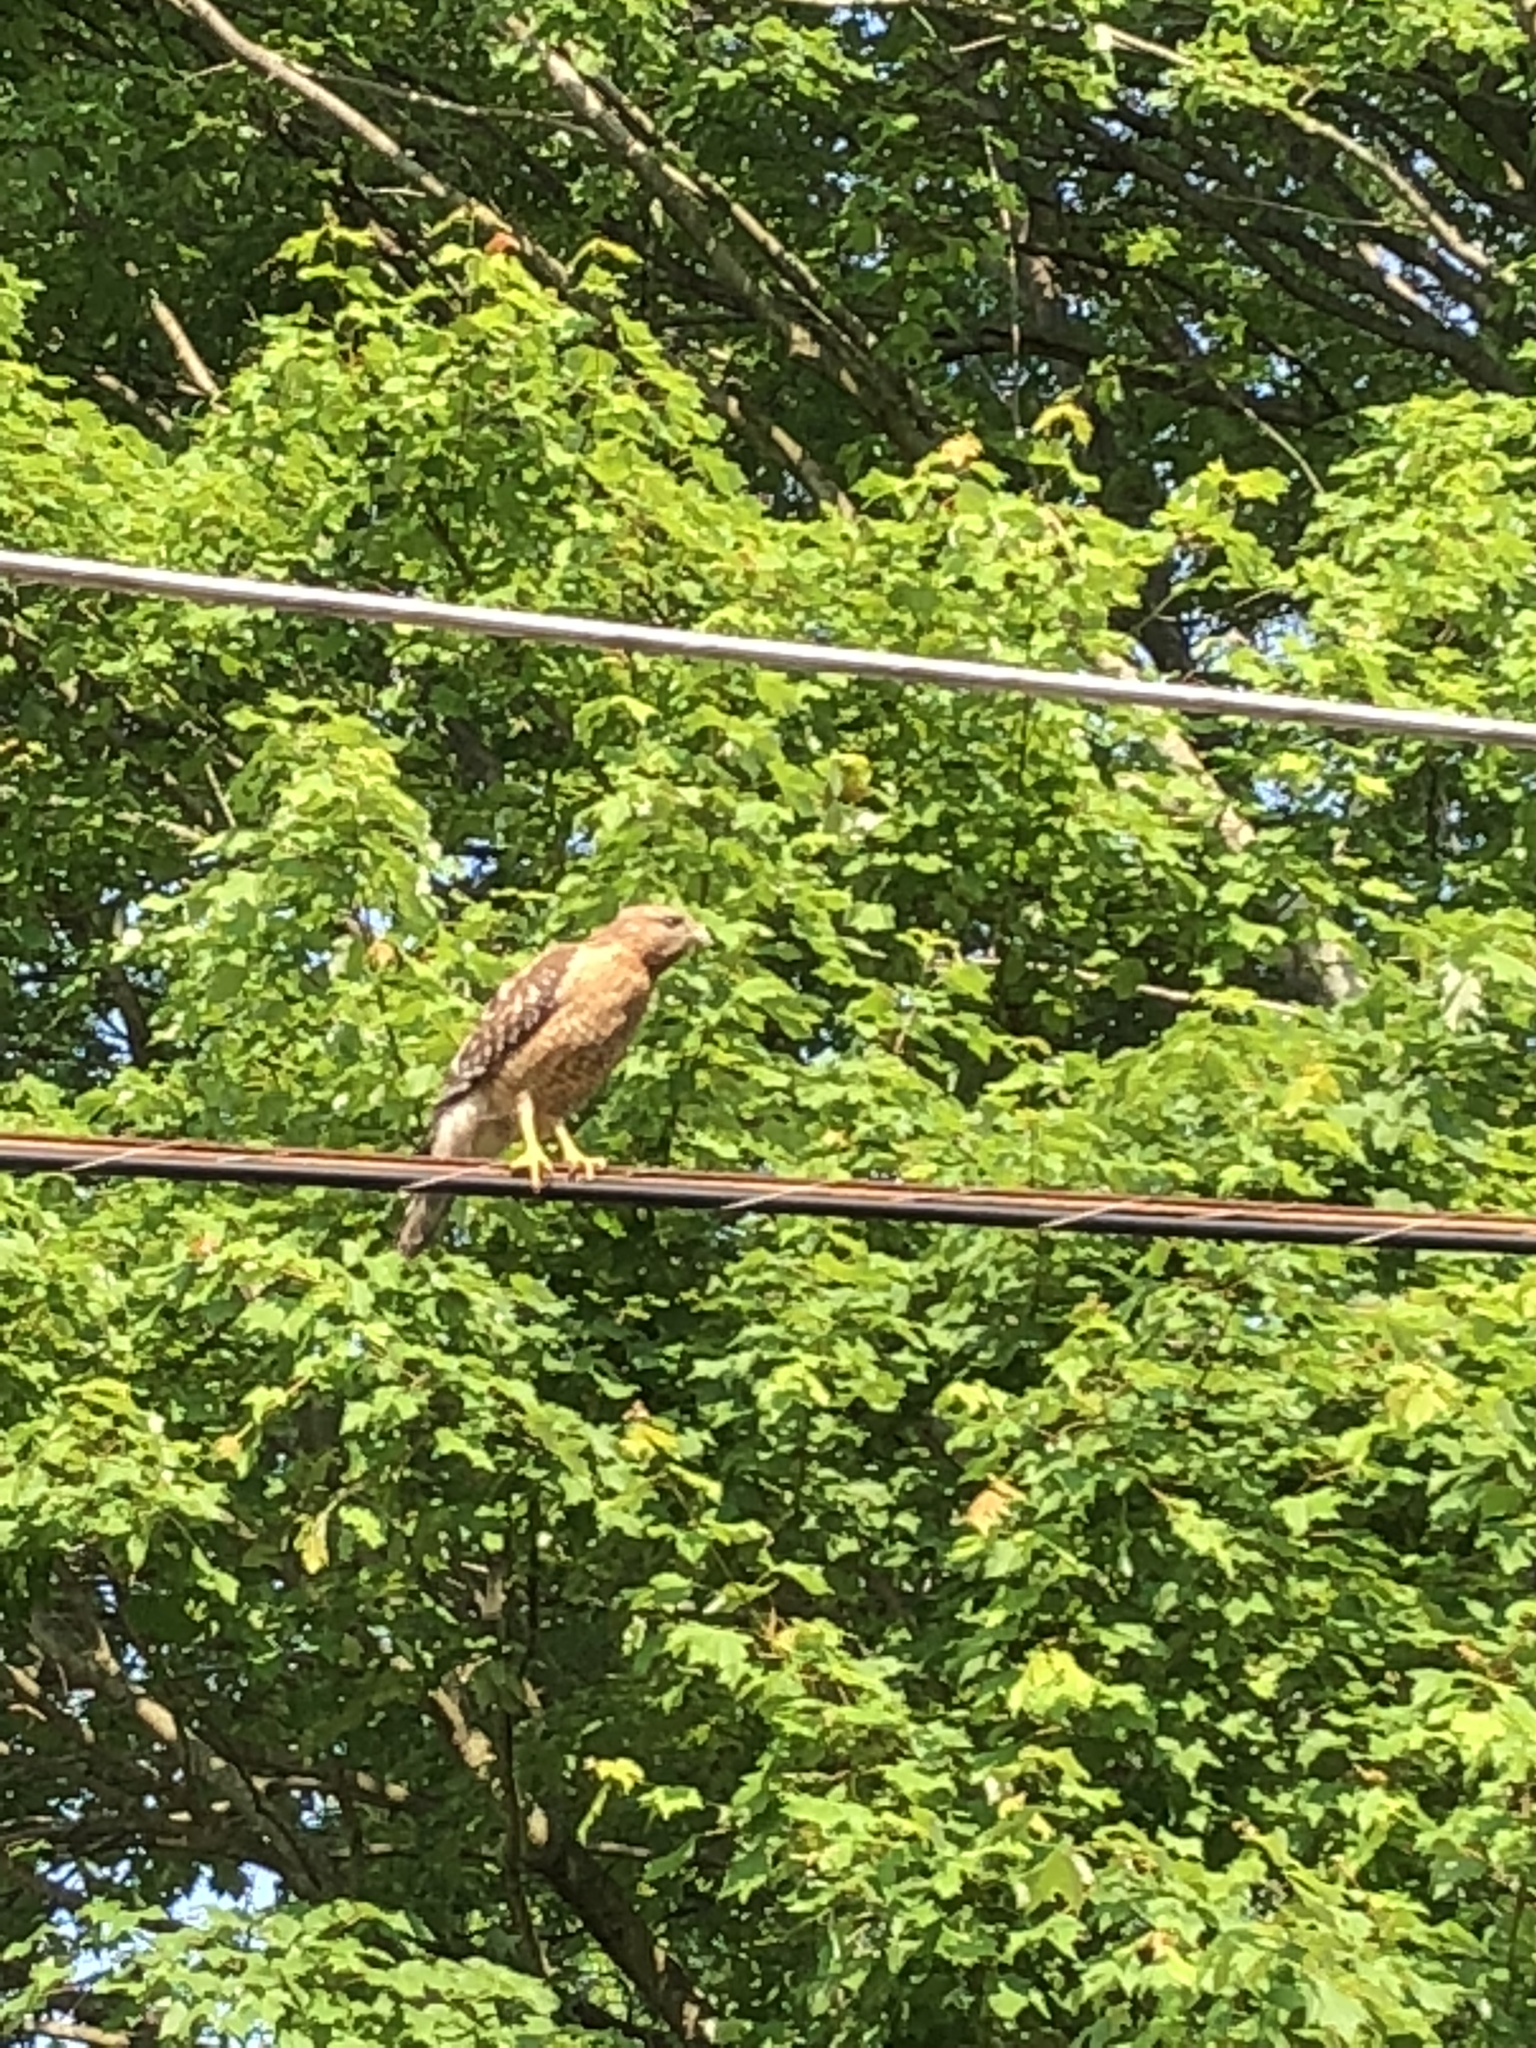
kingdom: Animalia
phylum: Chordata
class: Aves
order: Accipitriformes
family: Accipitridae
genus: Buteo
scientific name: Buteo lineatus
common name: Red-shouldered hawk
